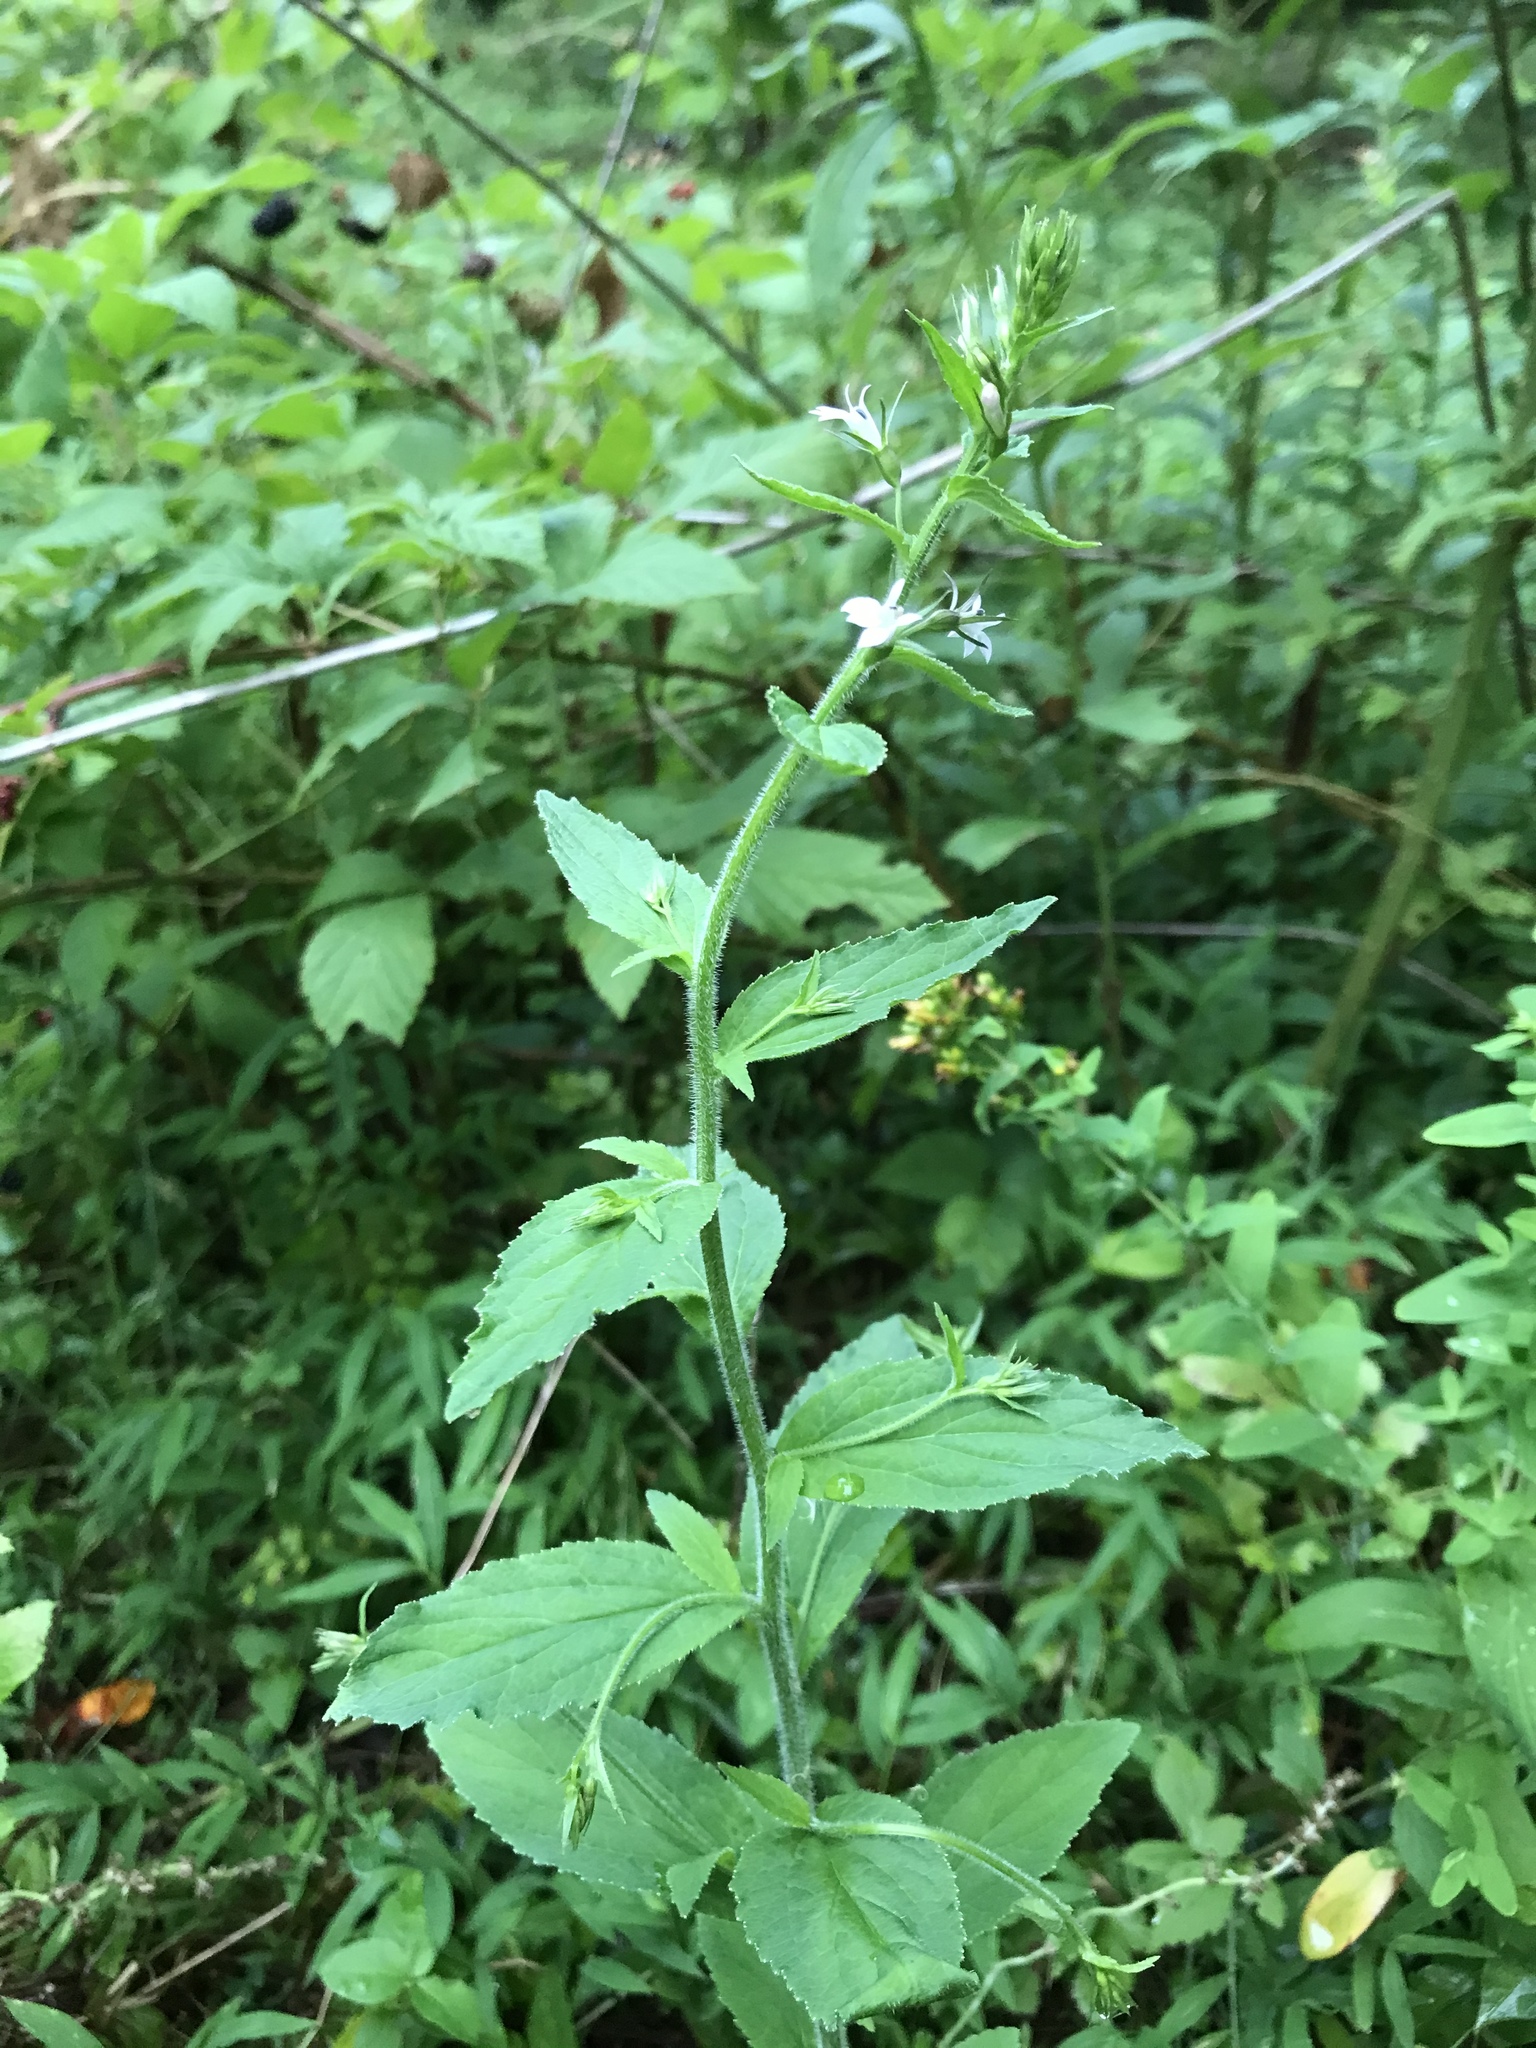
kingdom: Plantae
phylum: Tracheophyta
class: Magnoliopsida
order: Asterales
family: Campanulaceae
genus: Lobelia
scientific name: Lobelia inflata
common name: Indian tobacco
